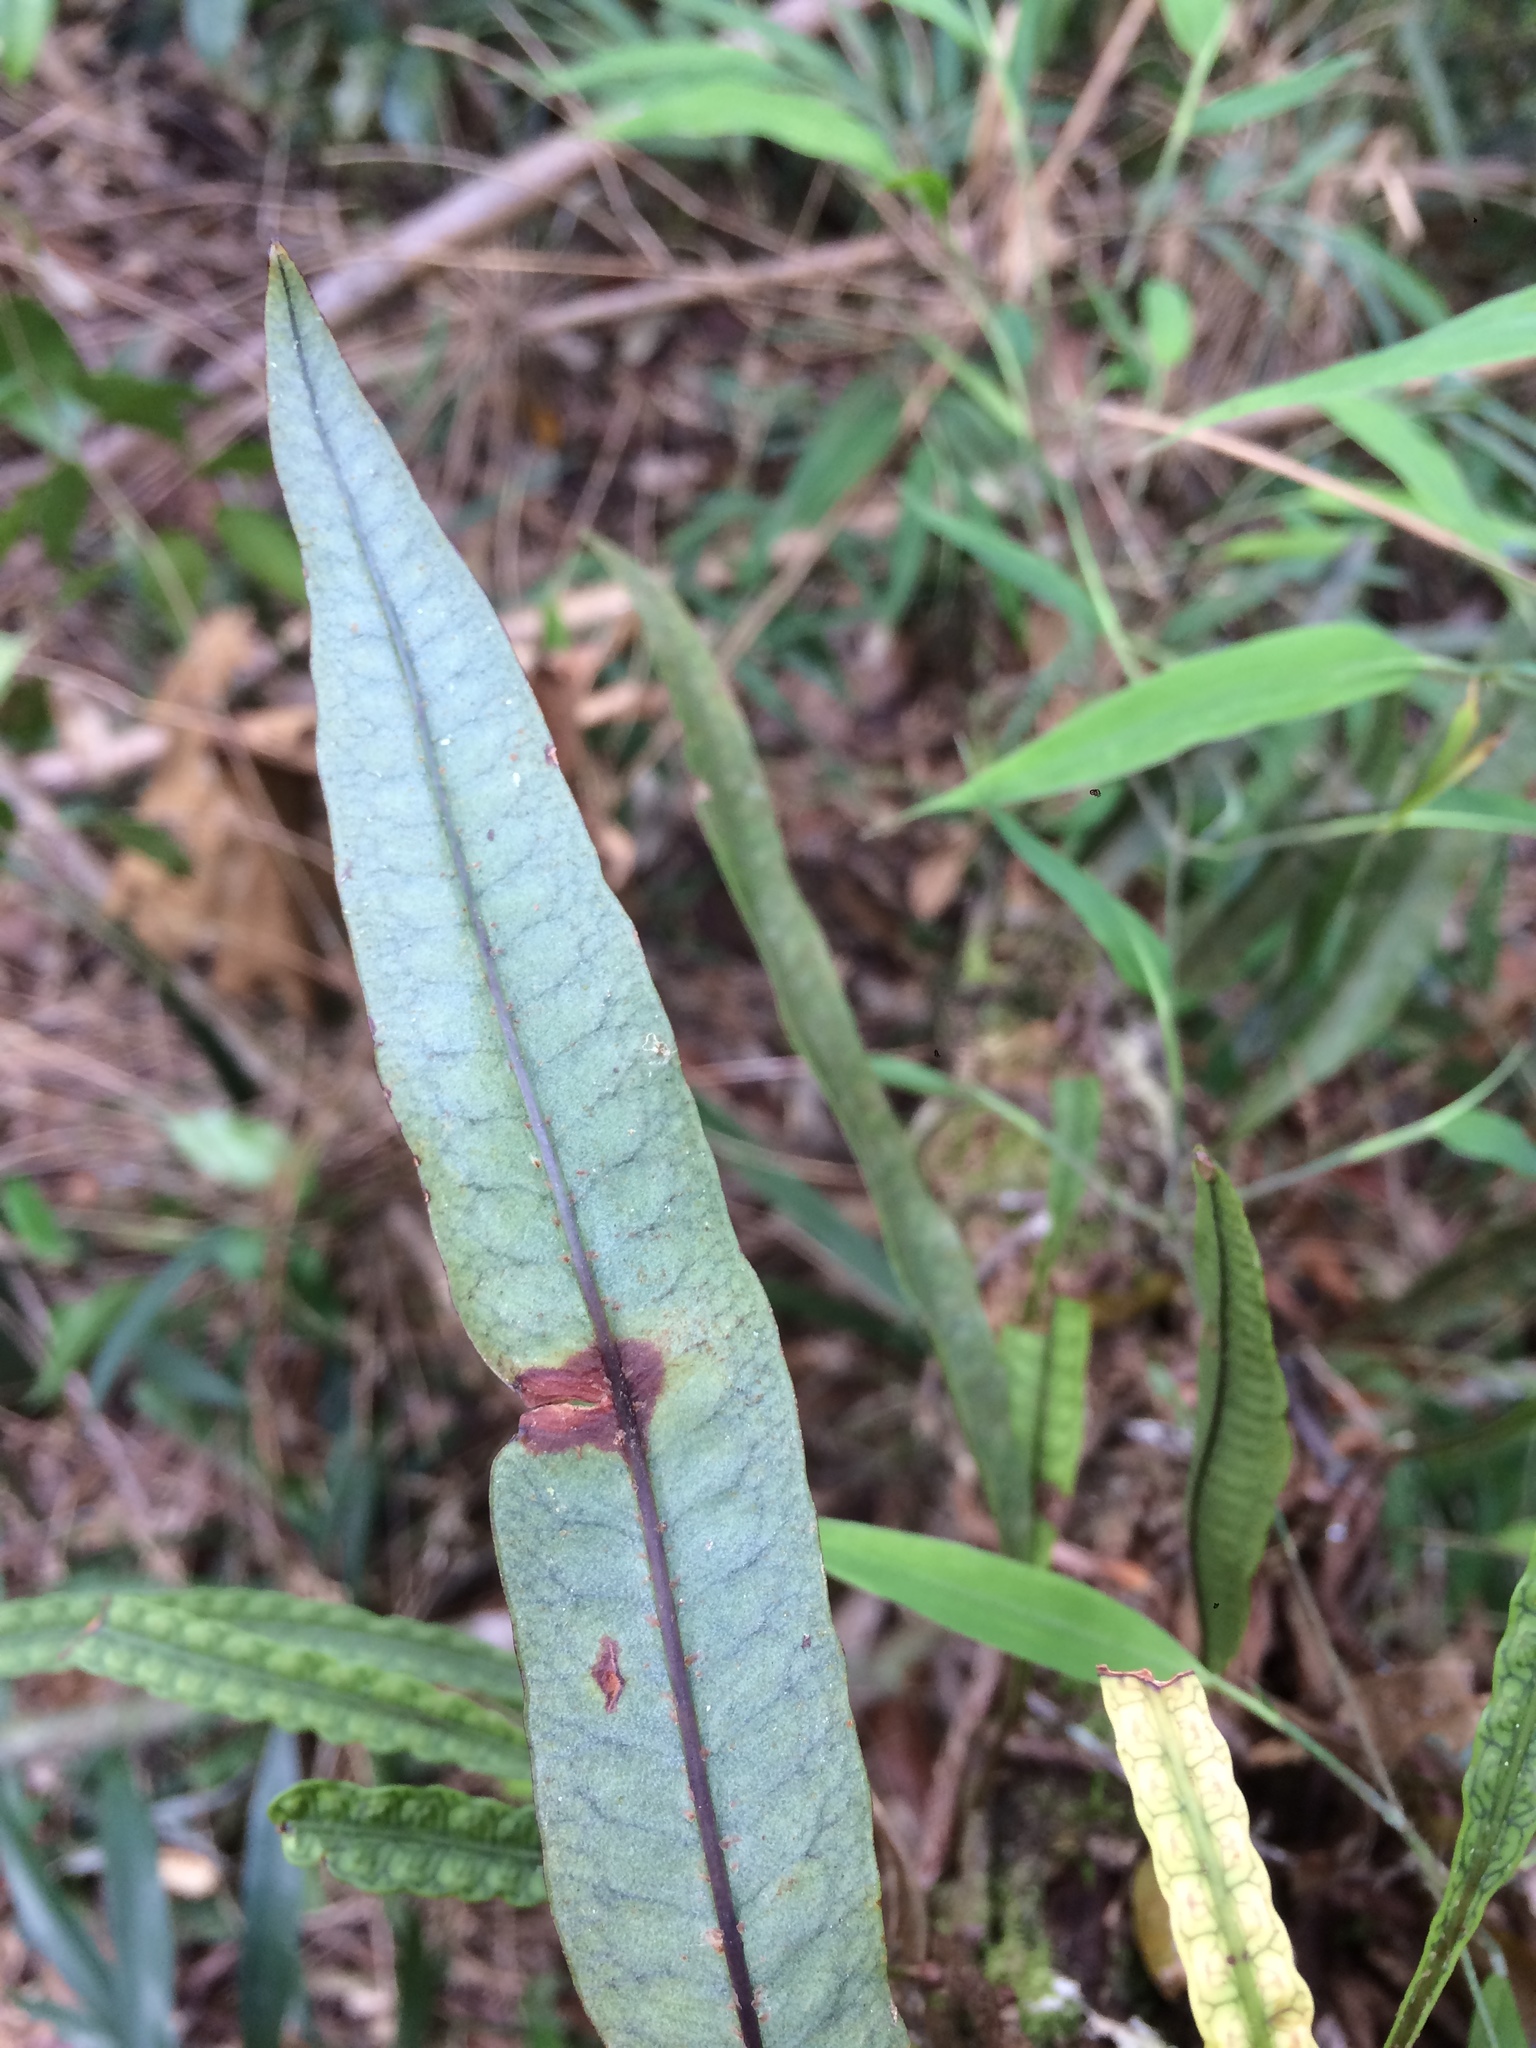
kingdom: Plantae
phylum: Tracheophyta
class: Polypodiopsida
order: Polypodiales
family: Polypodiaceae
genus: Microgramma
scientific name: Microgramma squamulosa
